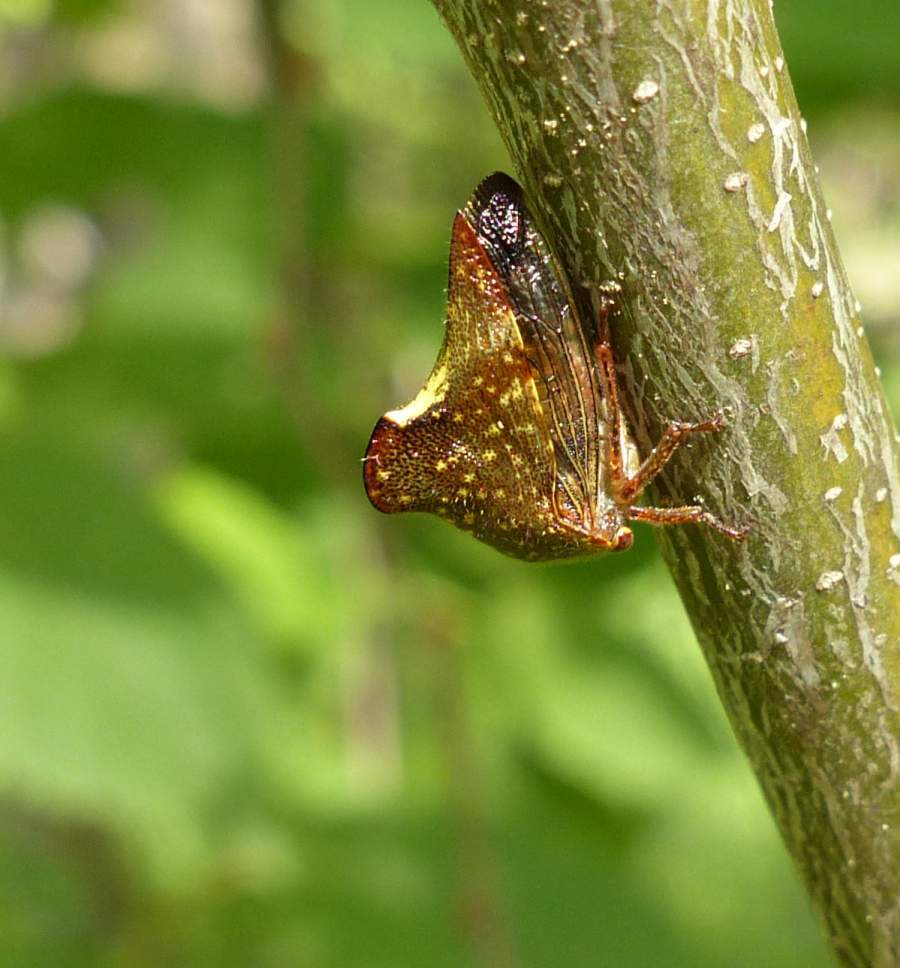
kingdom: Animalia
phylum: Arthropoda
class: Insecta
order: Hemiptera
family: Membracidae
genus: Telamona
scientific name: Telamona monticola
